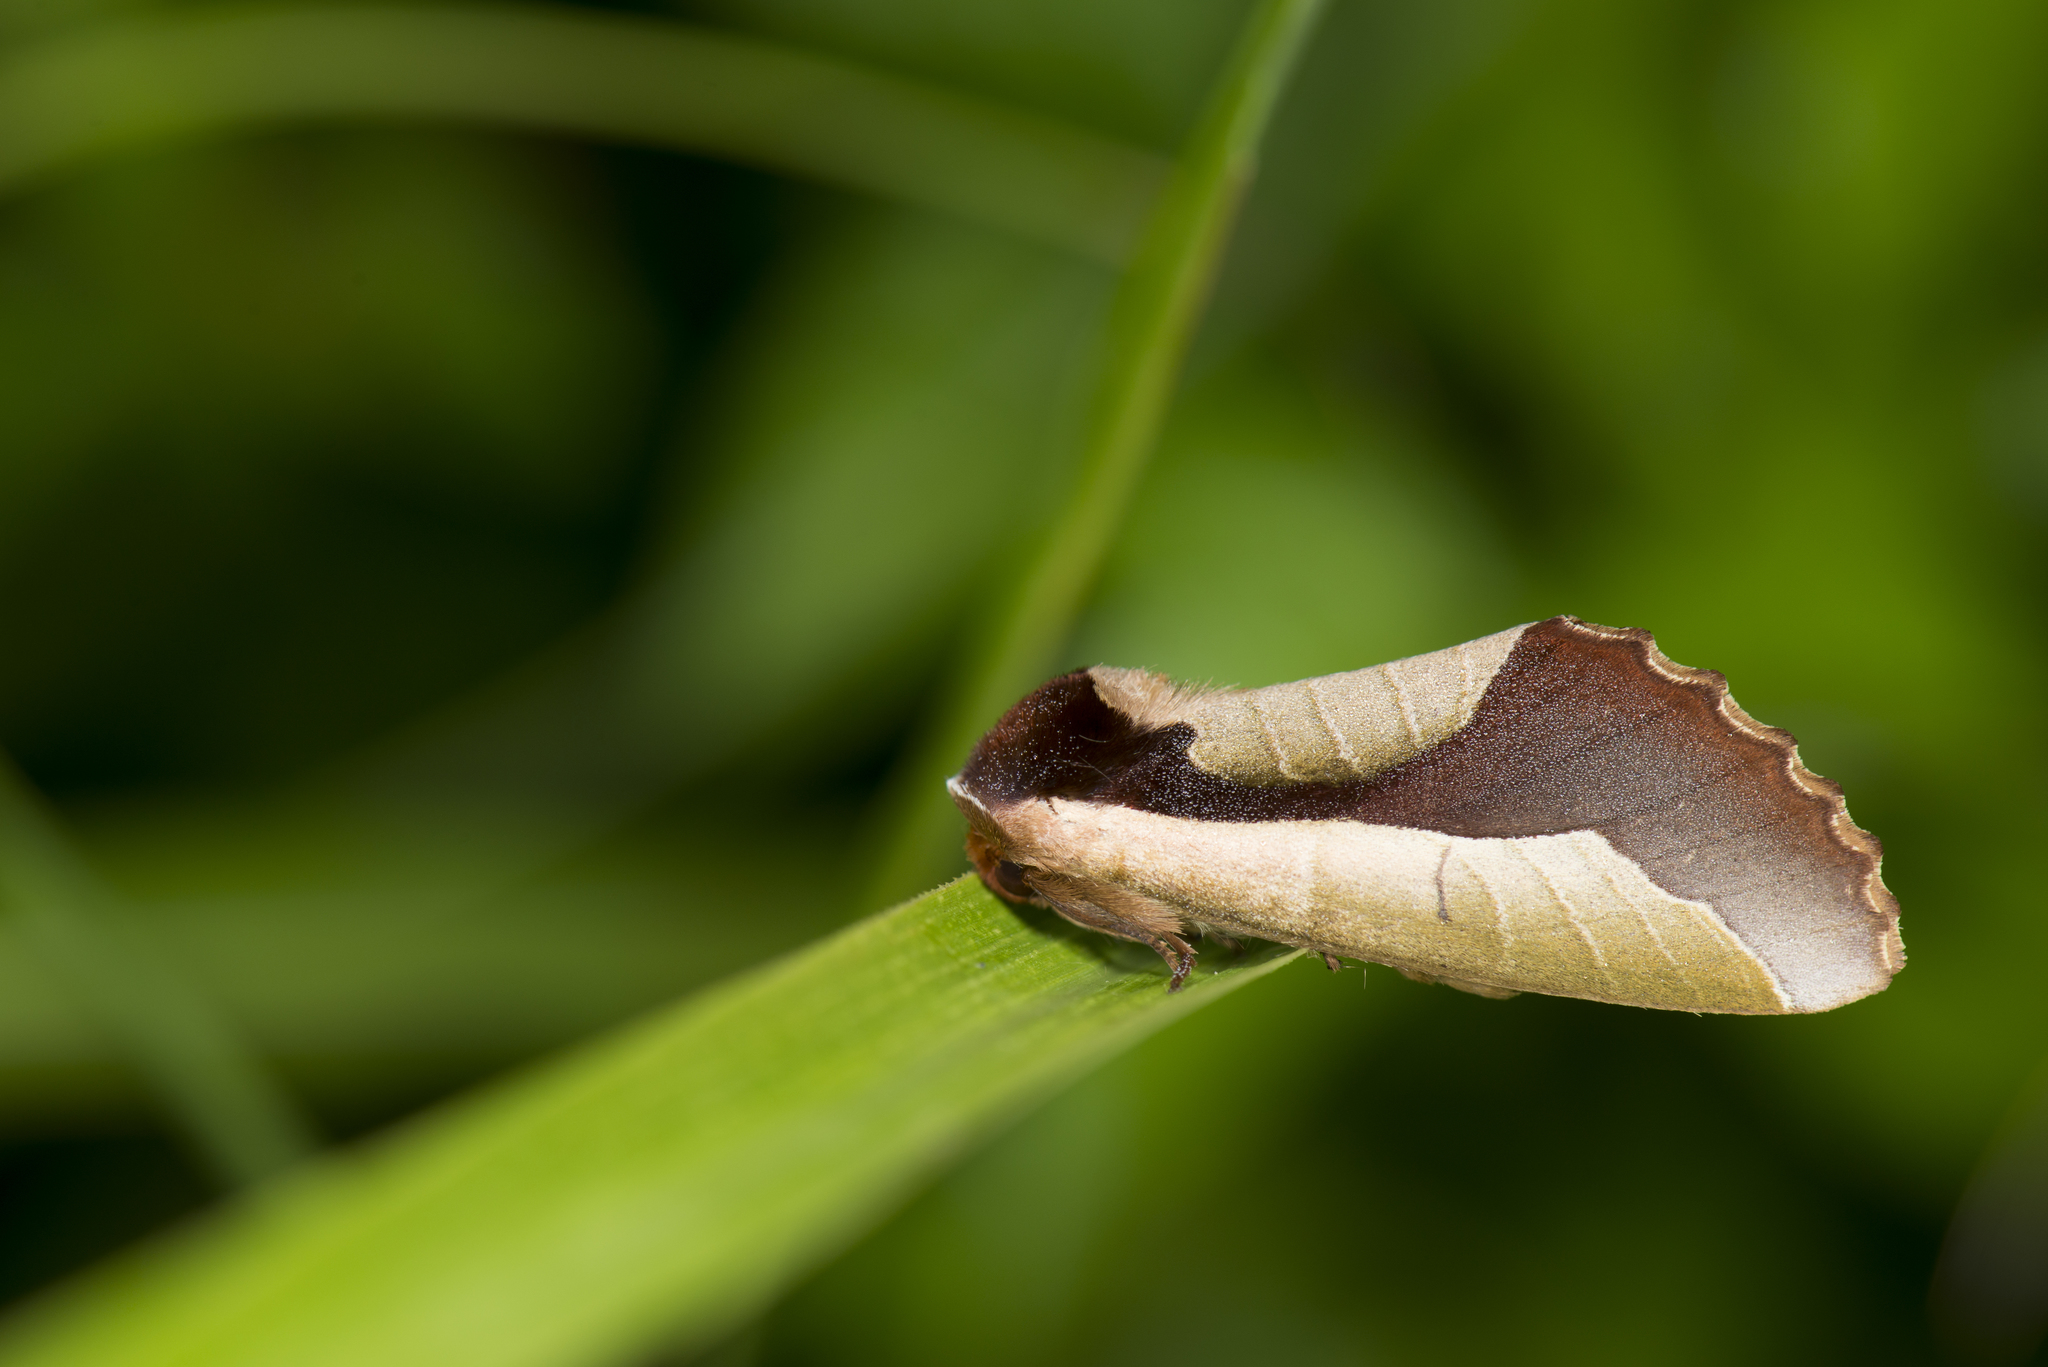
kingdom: Animalia
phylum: Arthropoda
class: Insecta
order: Lepidoptera
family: Notodontidae
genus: Uropyia
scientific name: Uropyia meticulodina
